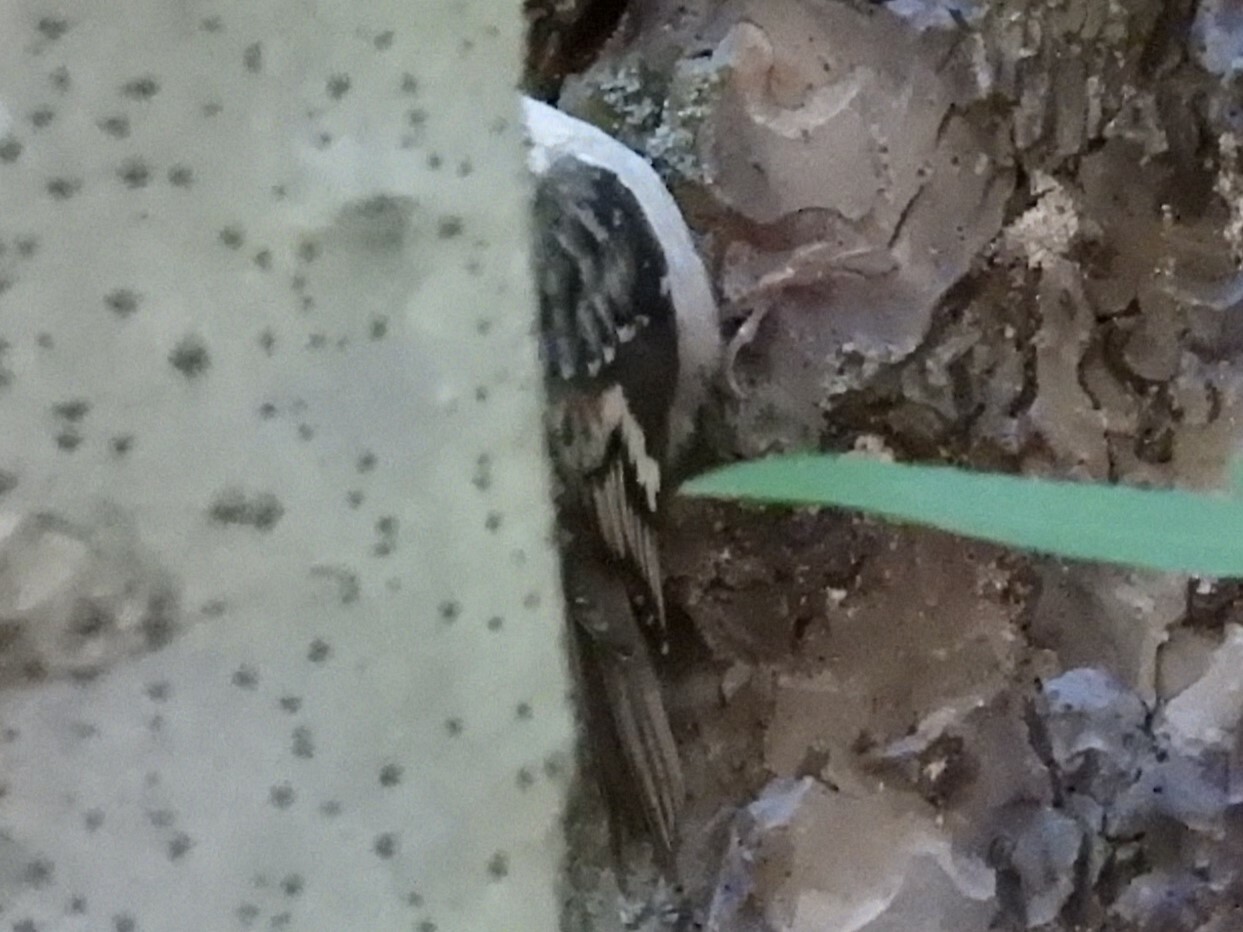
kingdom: Animalia
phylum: Chordata
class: Aves
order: Passeriformes
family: Certhiidae
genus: Certhia
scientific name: Certhia americana
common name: Brown creeper
